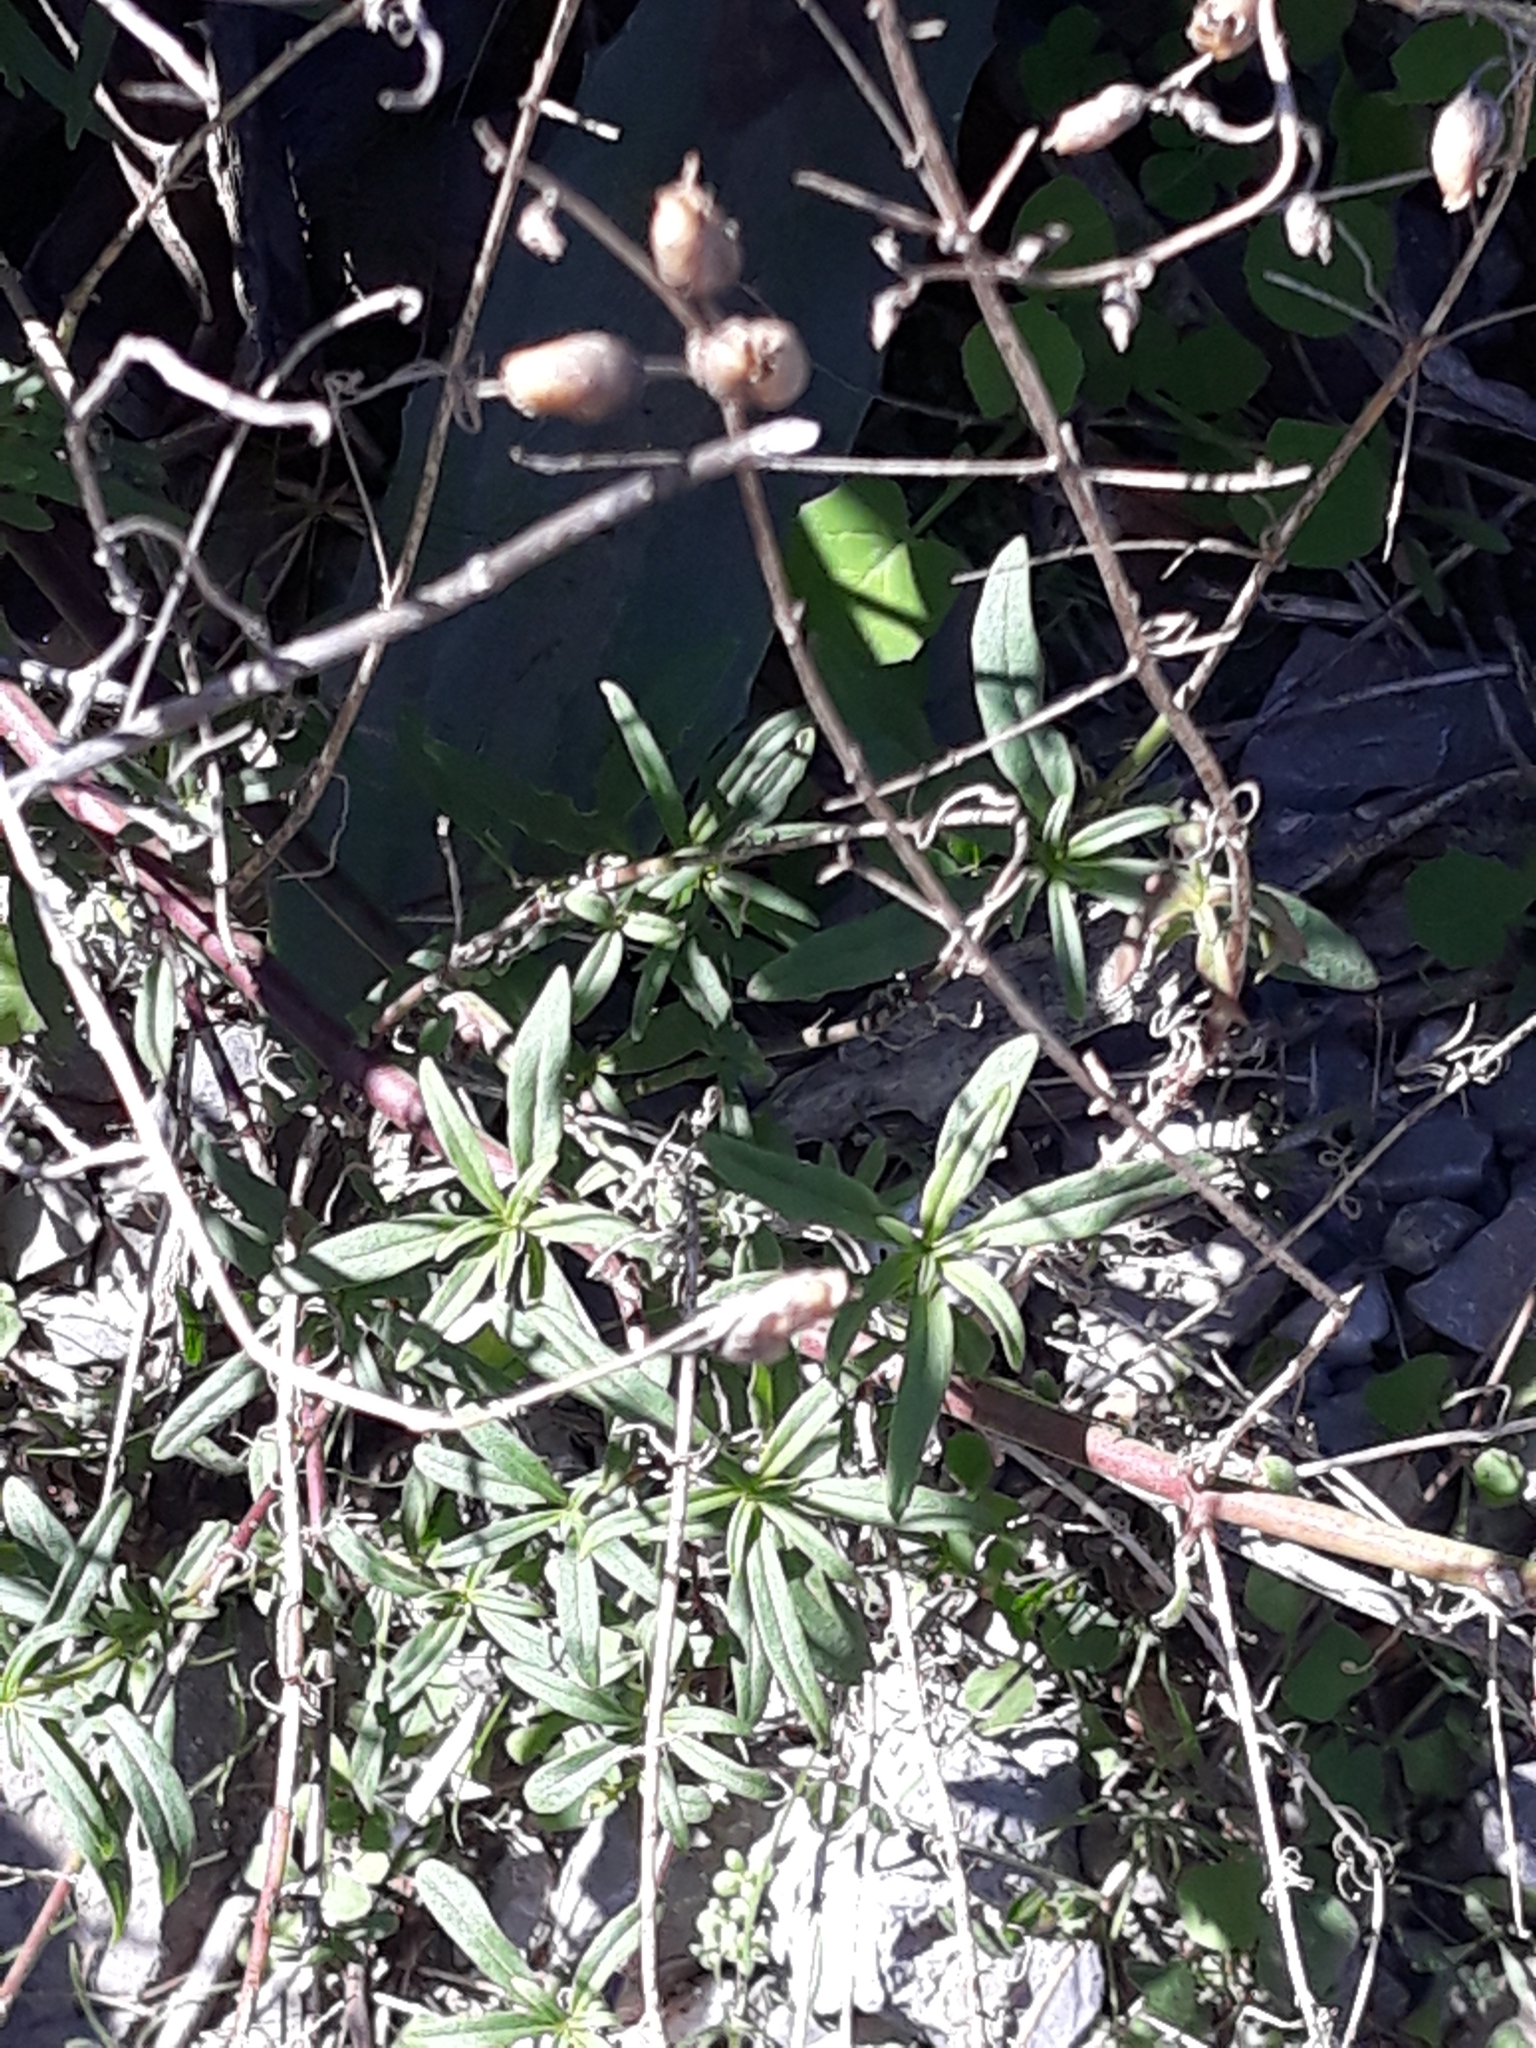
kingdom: Plantae
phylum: Tracheophyta
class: Magnoliopsida
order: Lamiales
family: Plantaginaceae
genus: Antirrhinum
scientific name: Antirrhinum tortuosum
